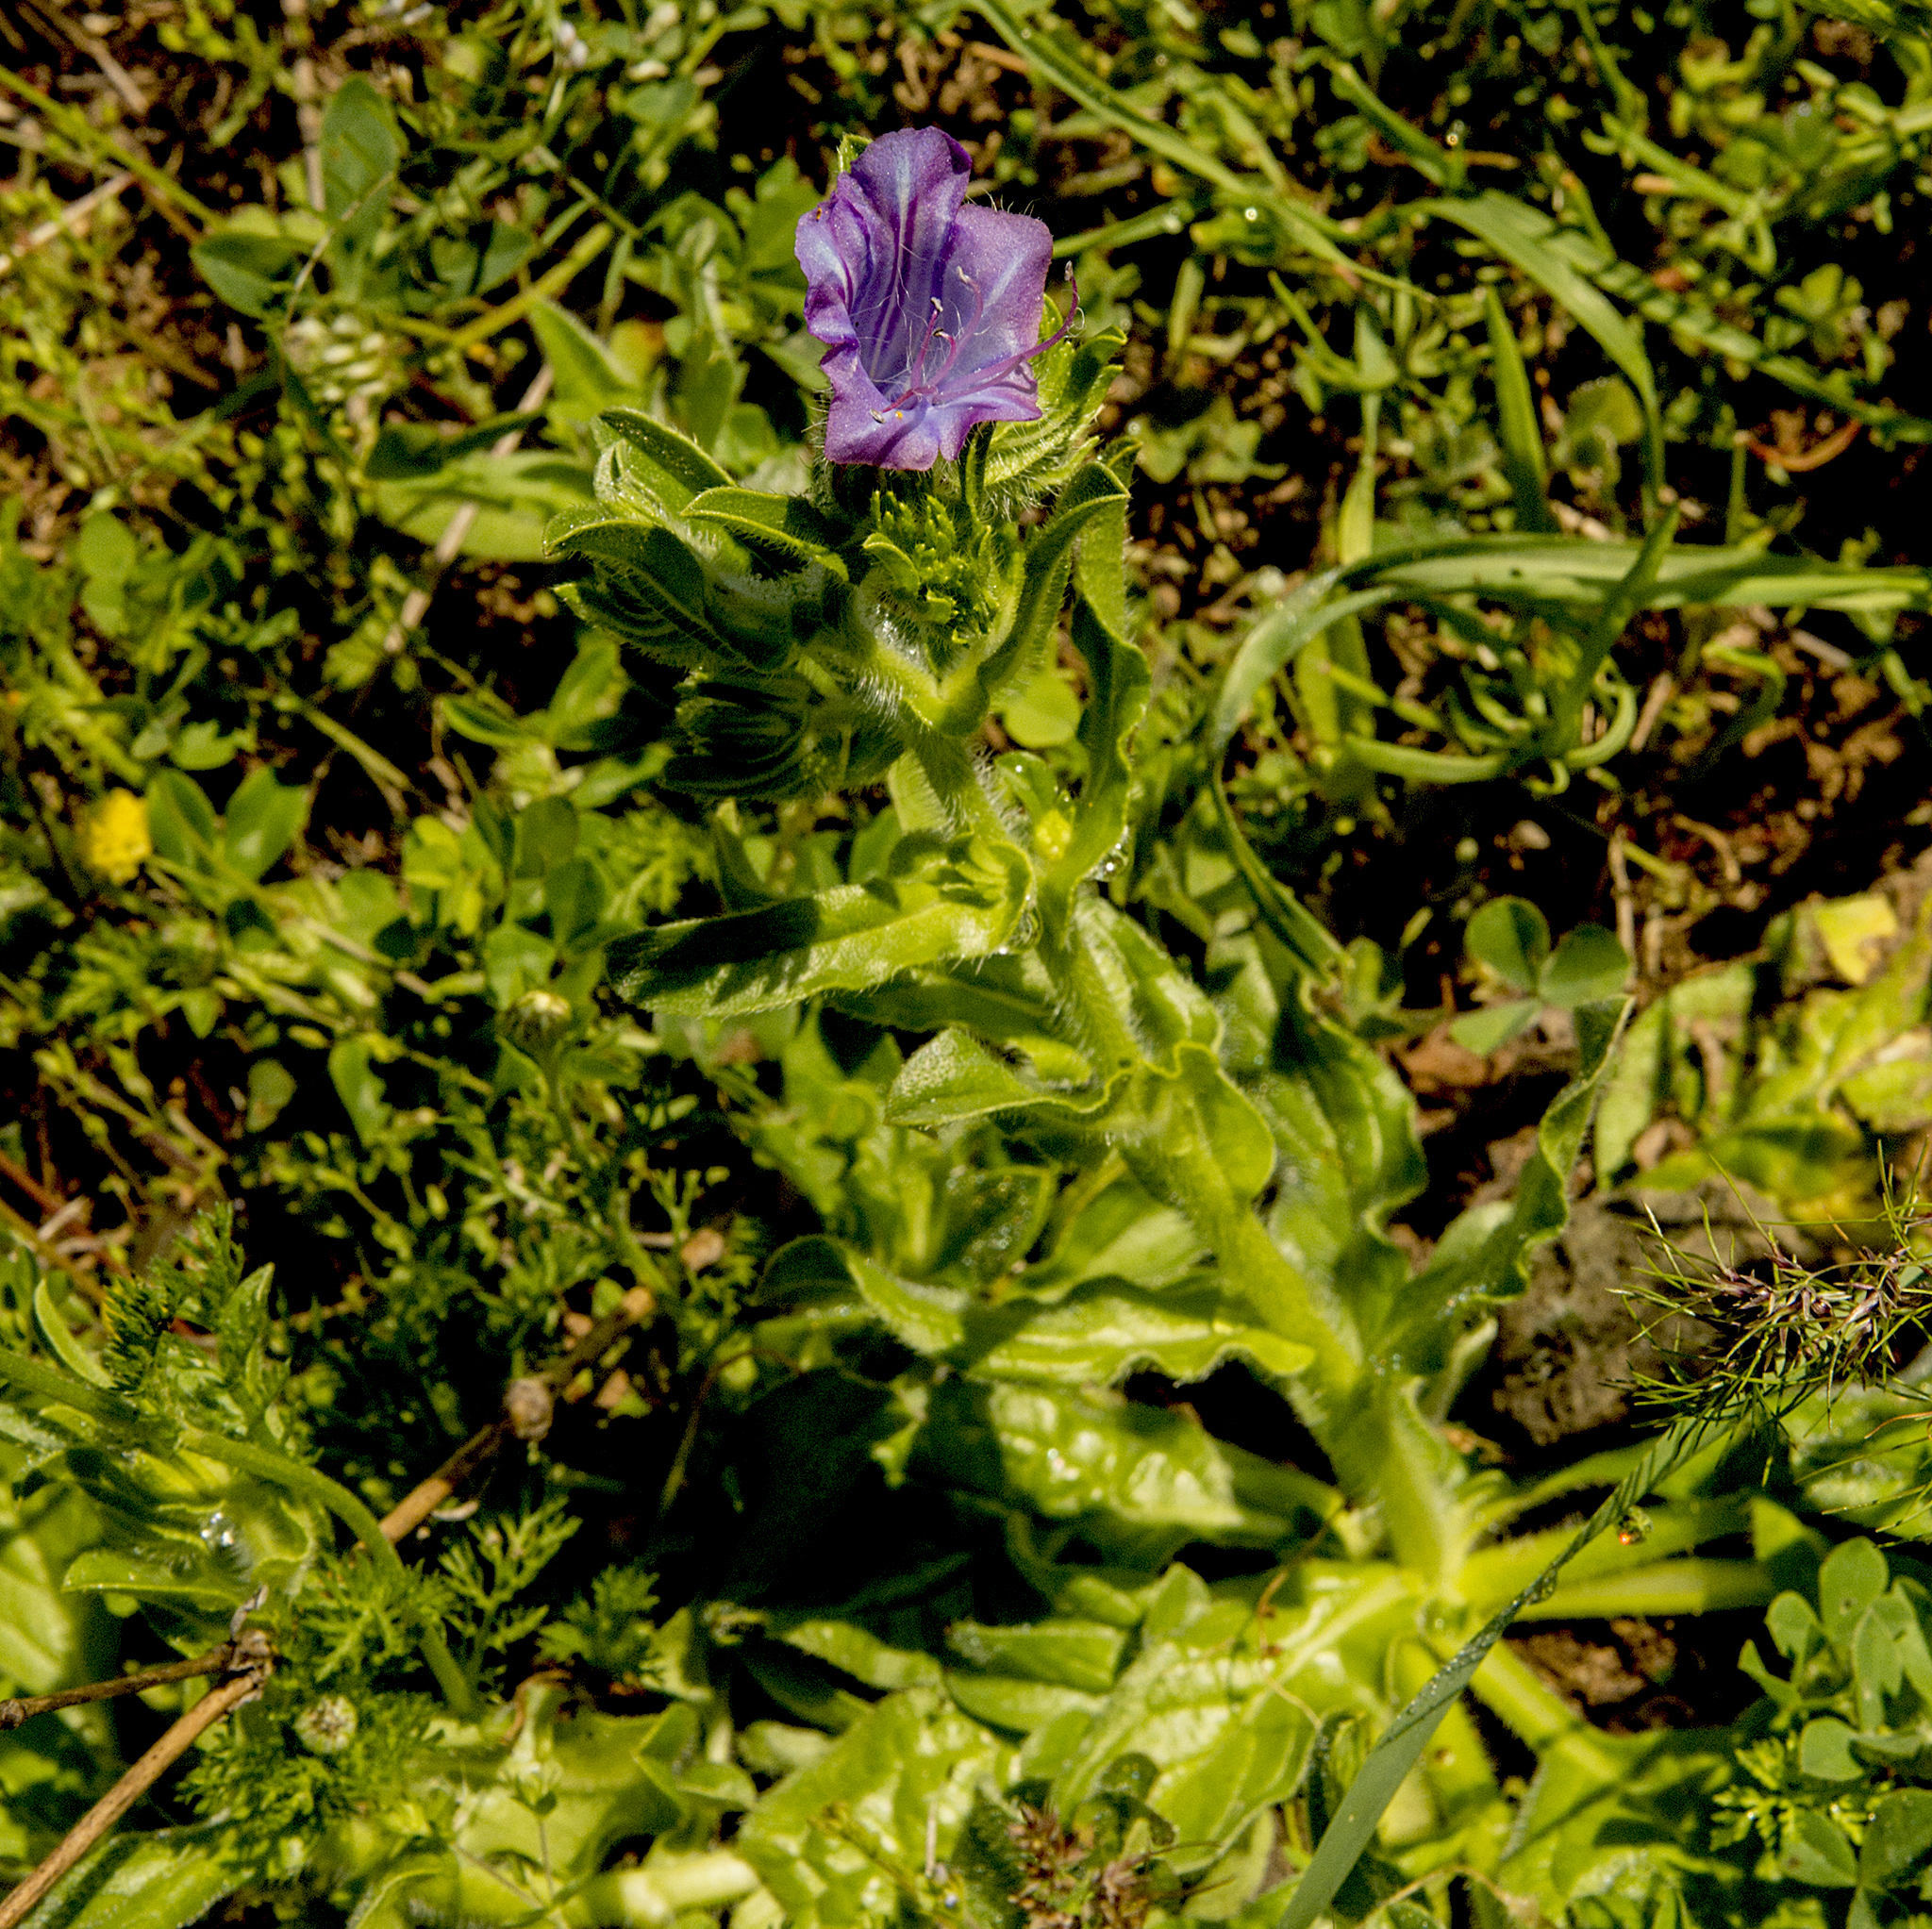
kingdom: Plantae
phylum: Tracheophyta
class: Magnoliopsida
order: Boraginales
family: Boraginaceae
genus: Echium
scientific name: Echium plantagineum
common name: Purple viper's-bugloss
